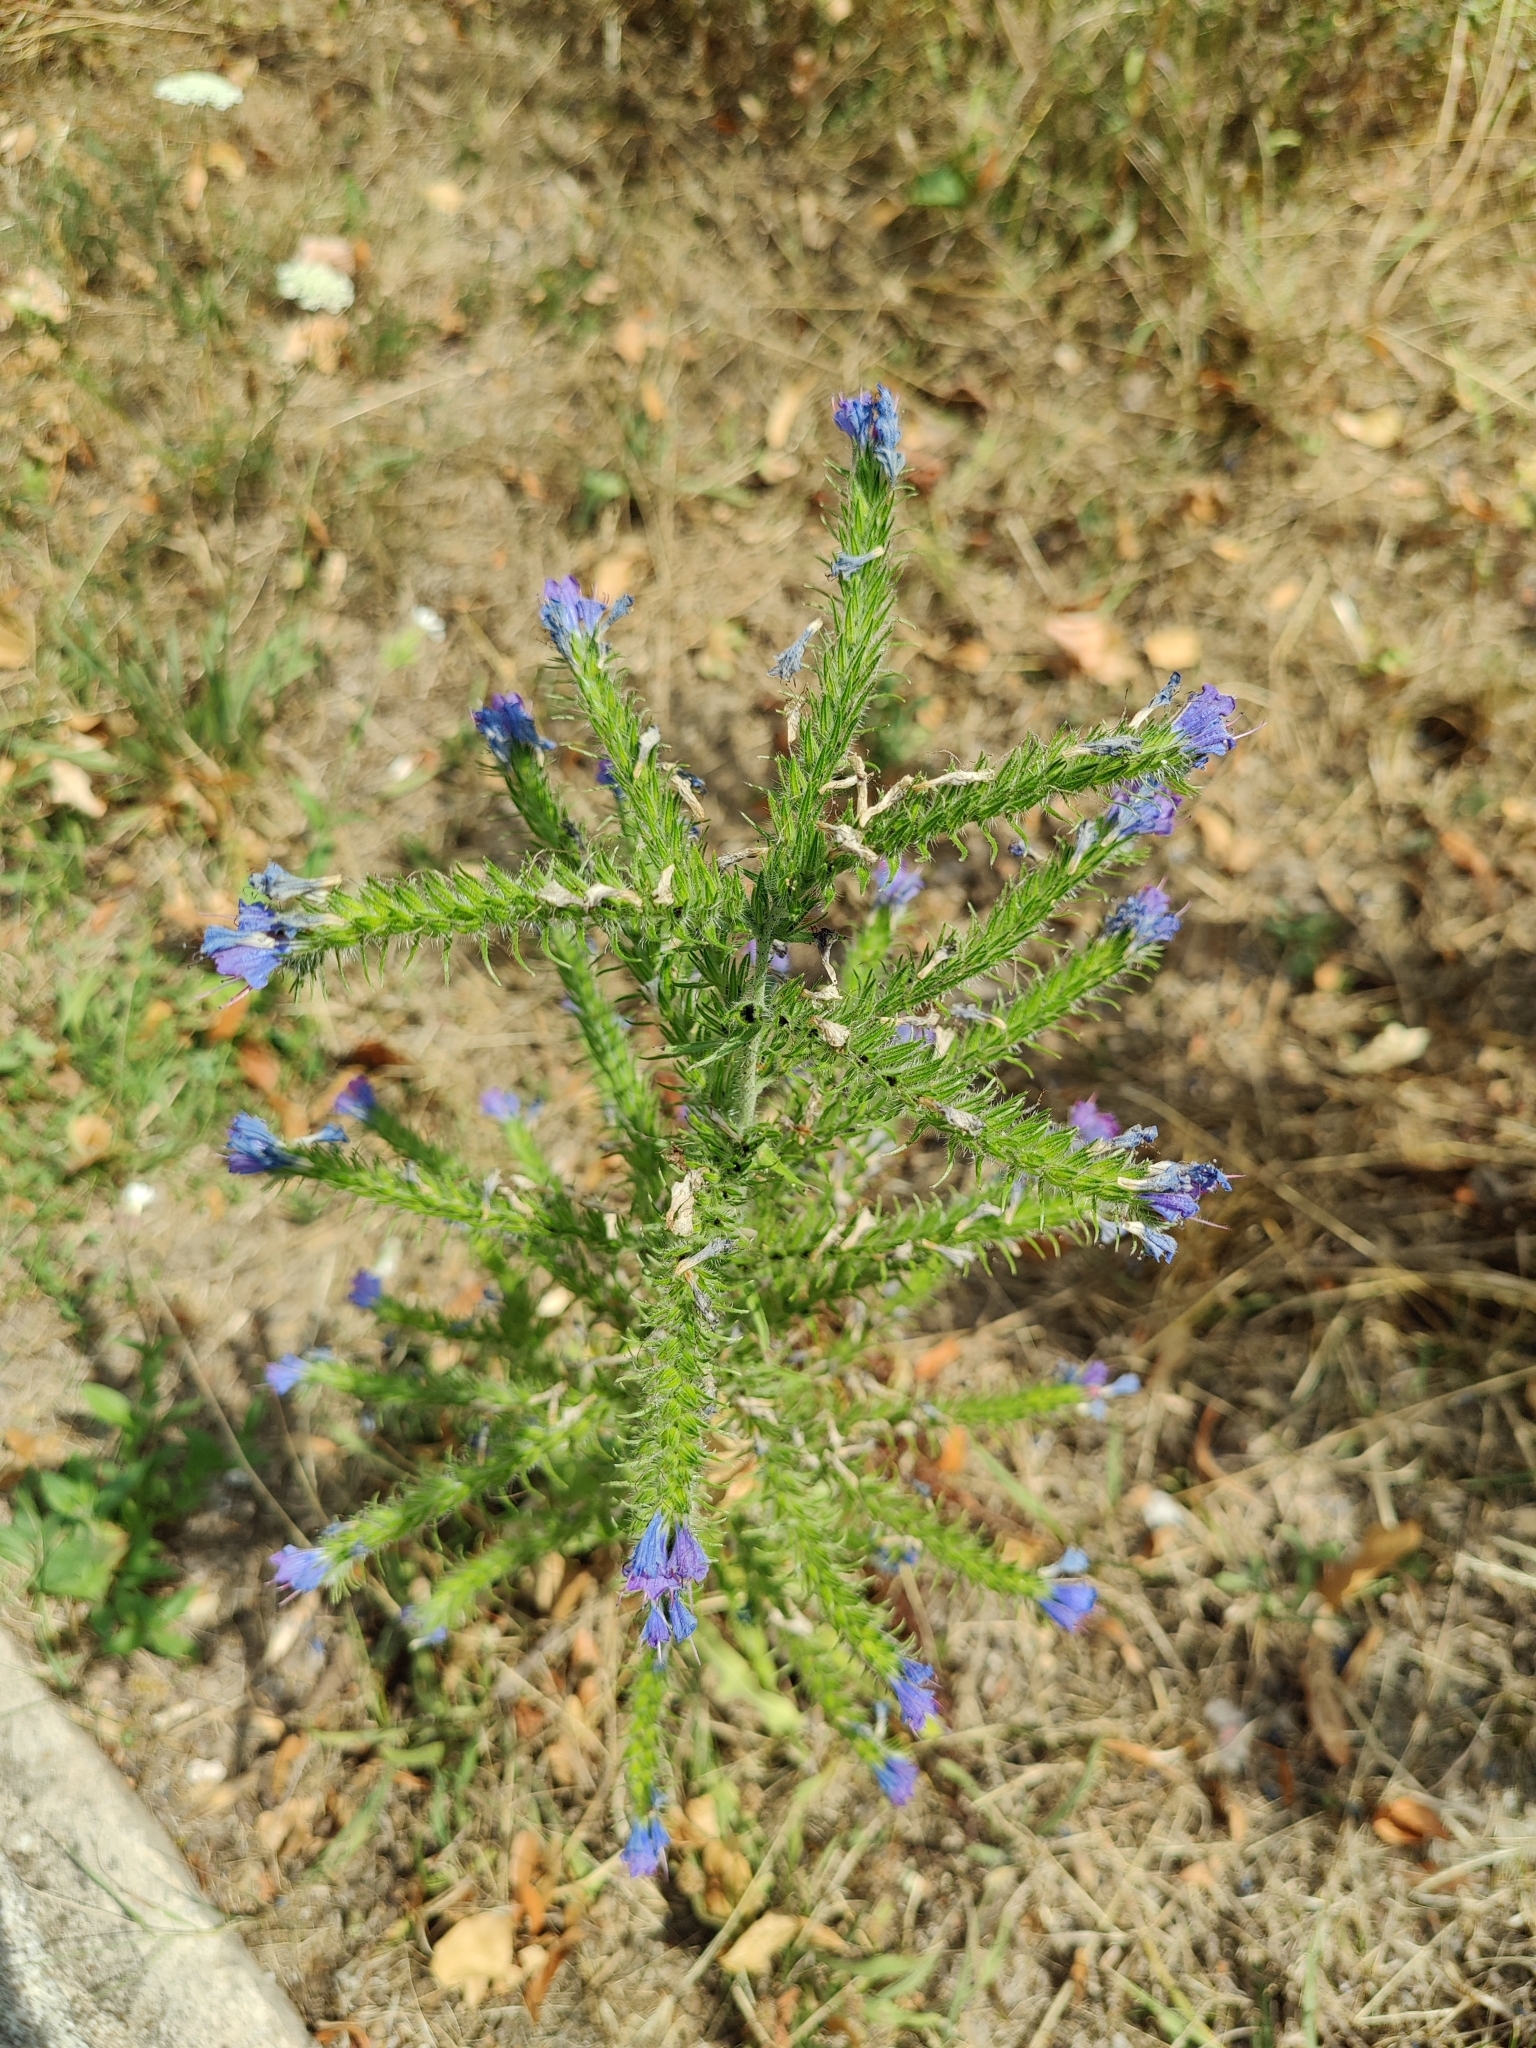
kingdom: Plantae
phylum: Tracheophyta
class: Magnoliopsida
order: Boraginales
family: Boraginaceae
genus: Echium
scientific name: Echium vulgare
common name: Common viper's bugloss
